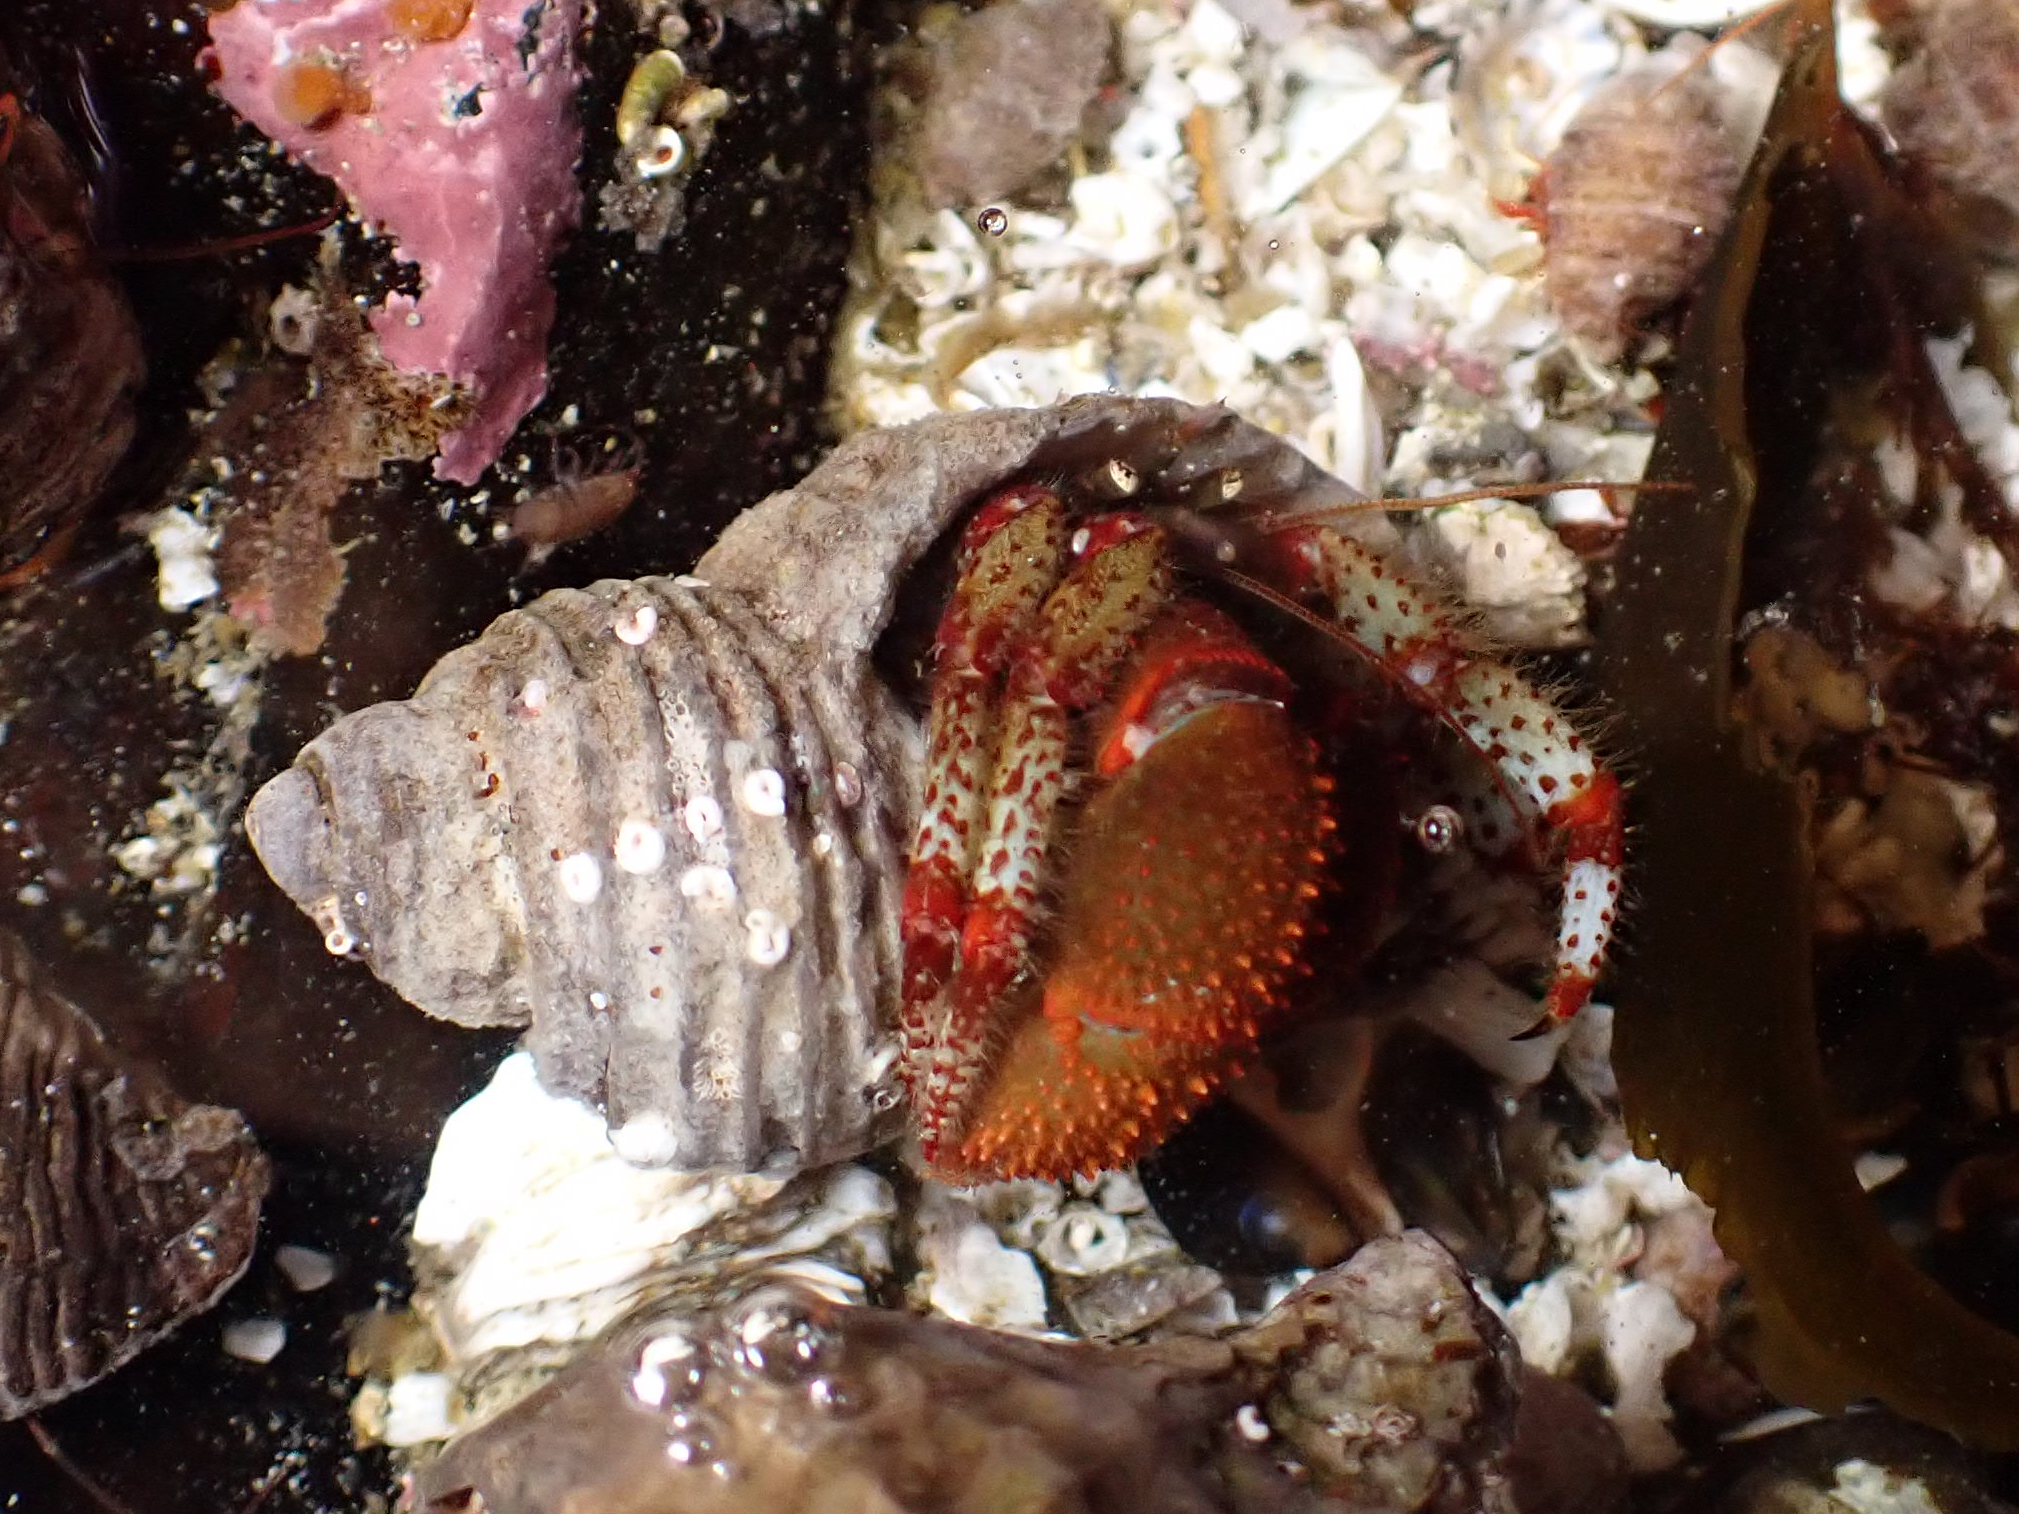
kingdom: Animalia
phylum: Arthropoda
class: Malacostraca
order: Decapoda
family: Paguridae
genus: Pagurus
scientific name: Pagurus beringanus
